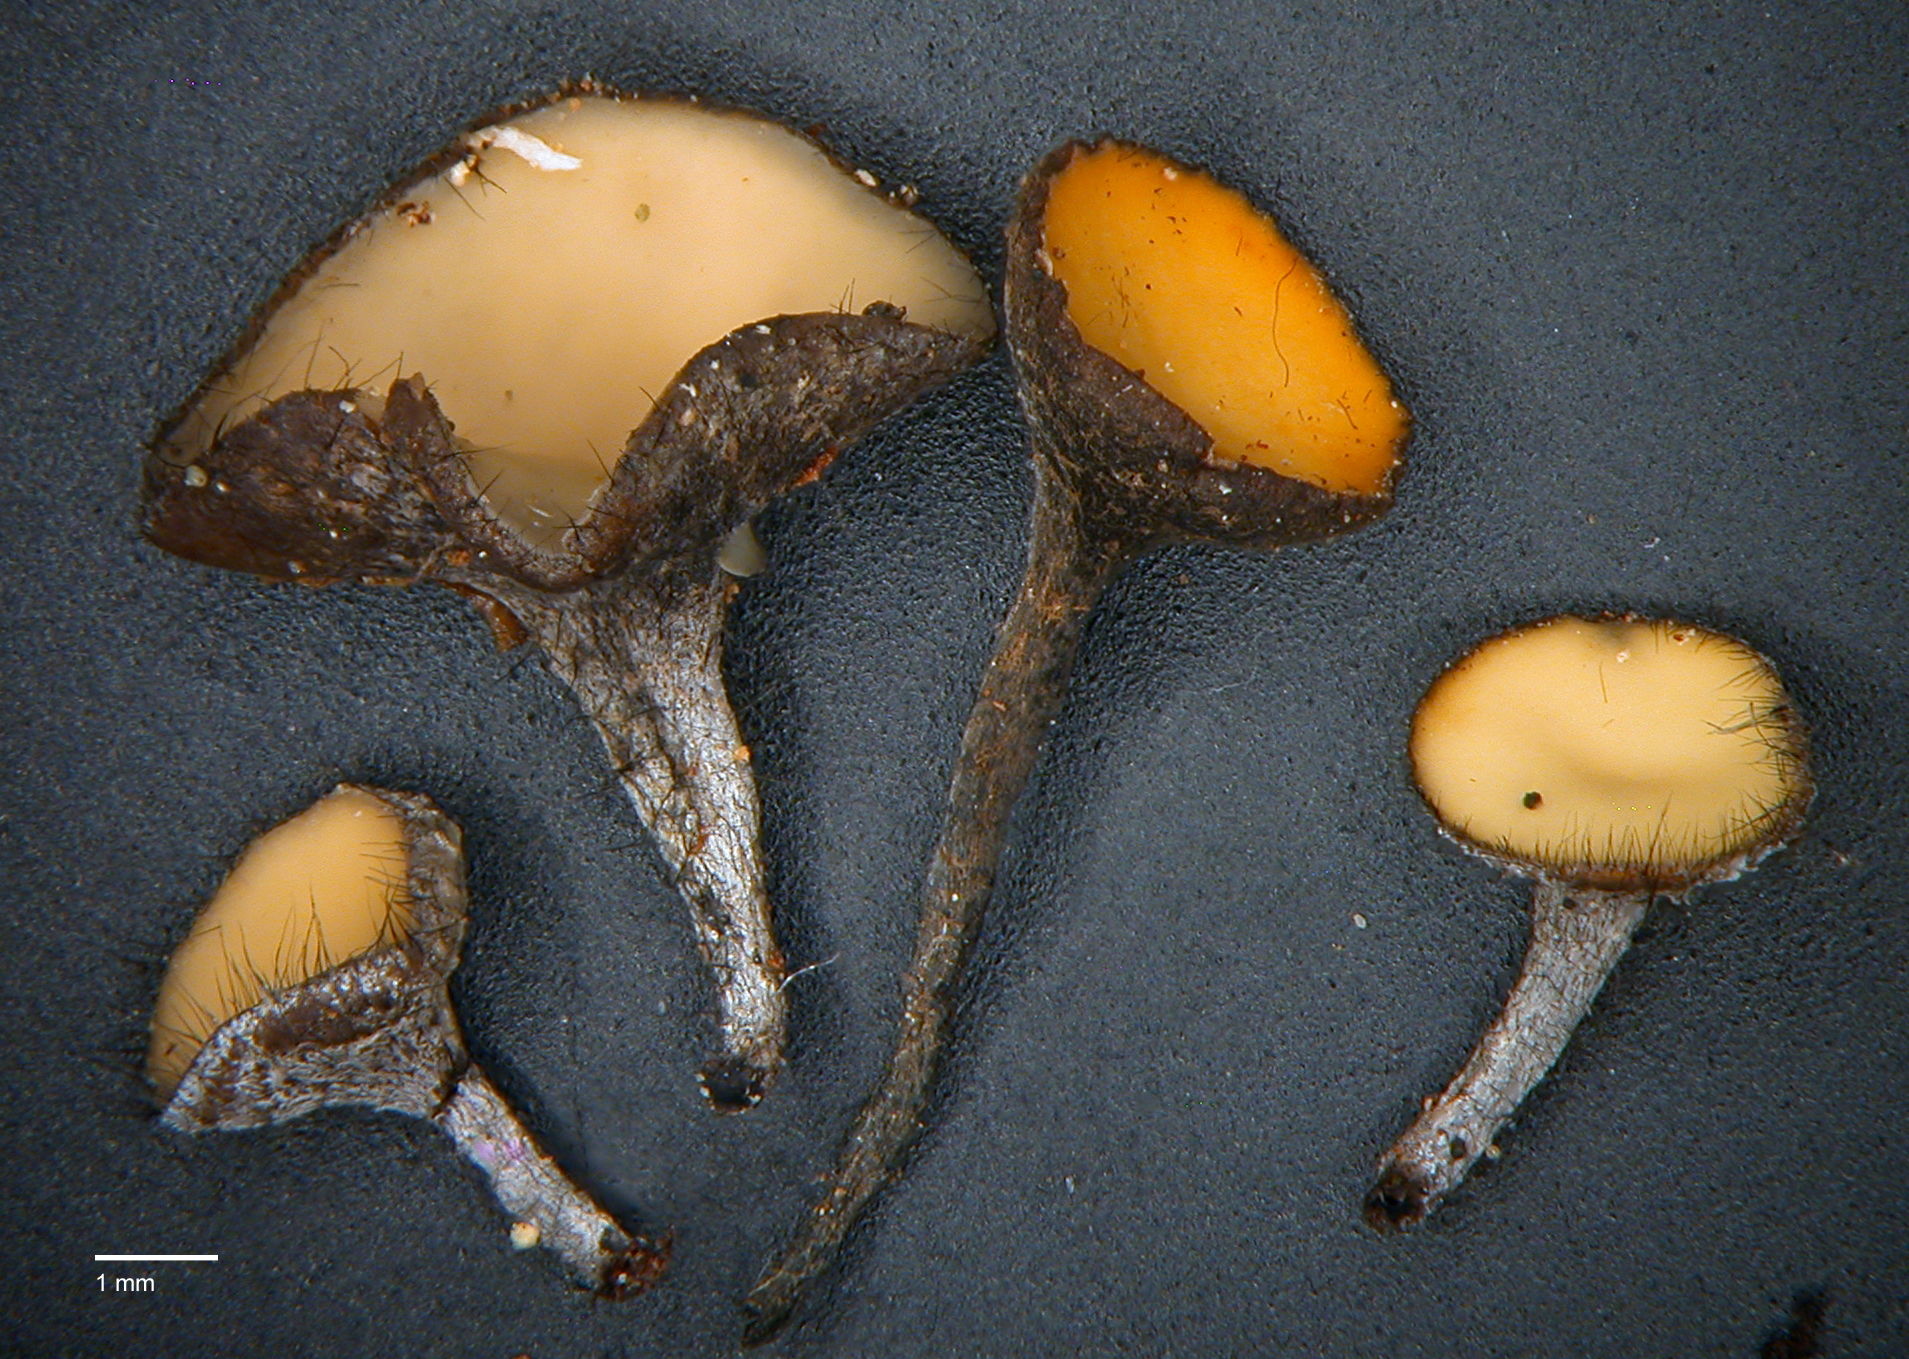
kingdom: Fungi
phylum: Ascomycota
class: Leotiomycetes
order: Helotiales
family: Helotiaceae
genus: Hymenotorrendiella
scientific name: Hymenotorrendiella clelandii
